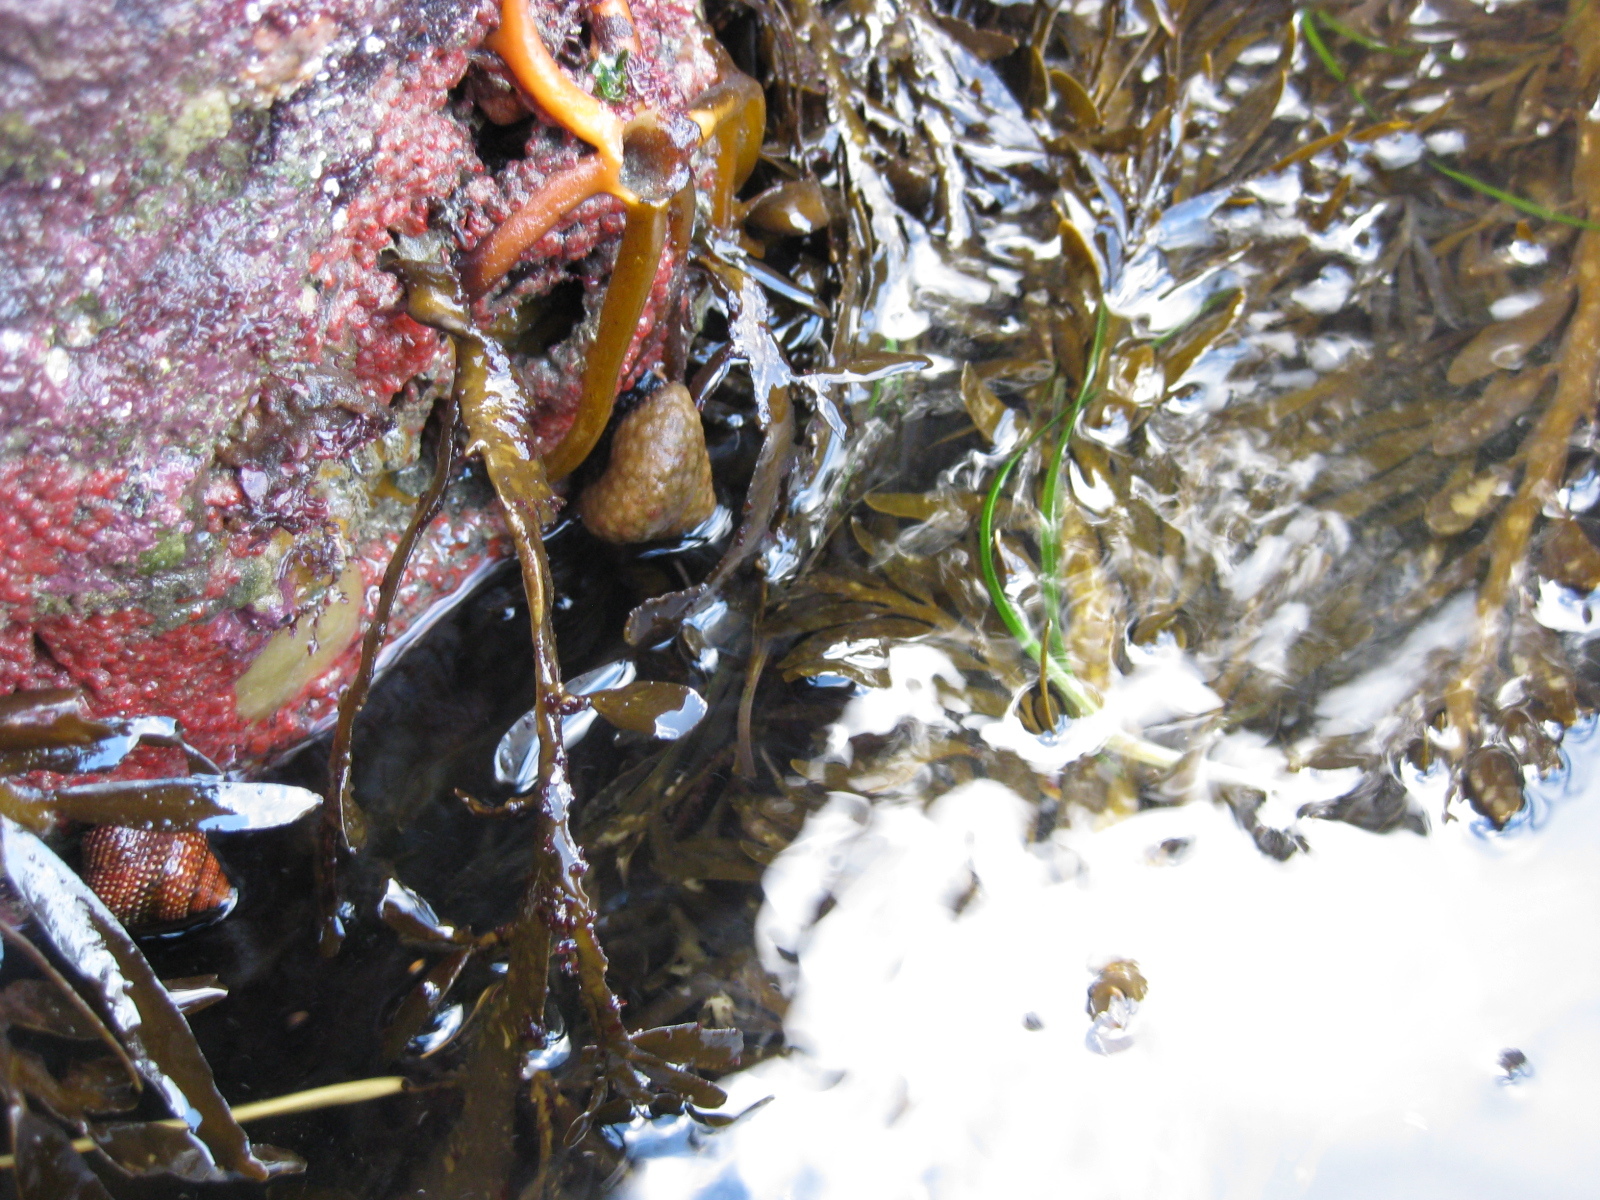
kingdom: Animalia
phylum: Mollusca
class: Gastropoda
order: Trochida
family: Calliostomatidae
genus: Maurea
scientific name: Maurea punctulata
